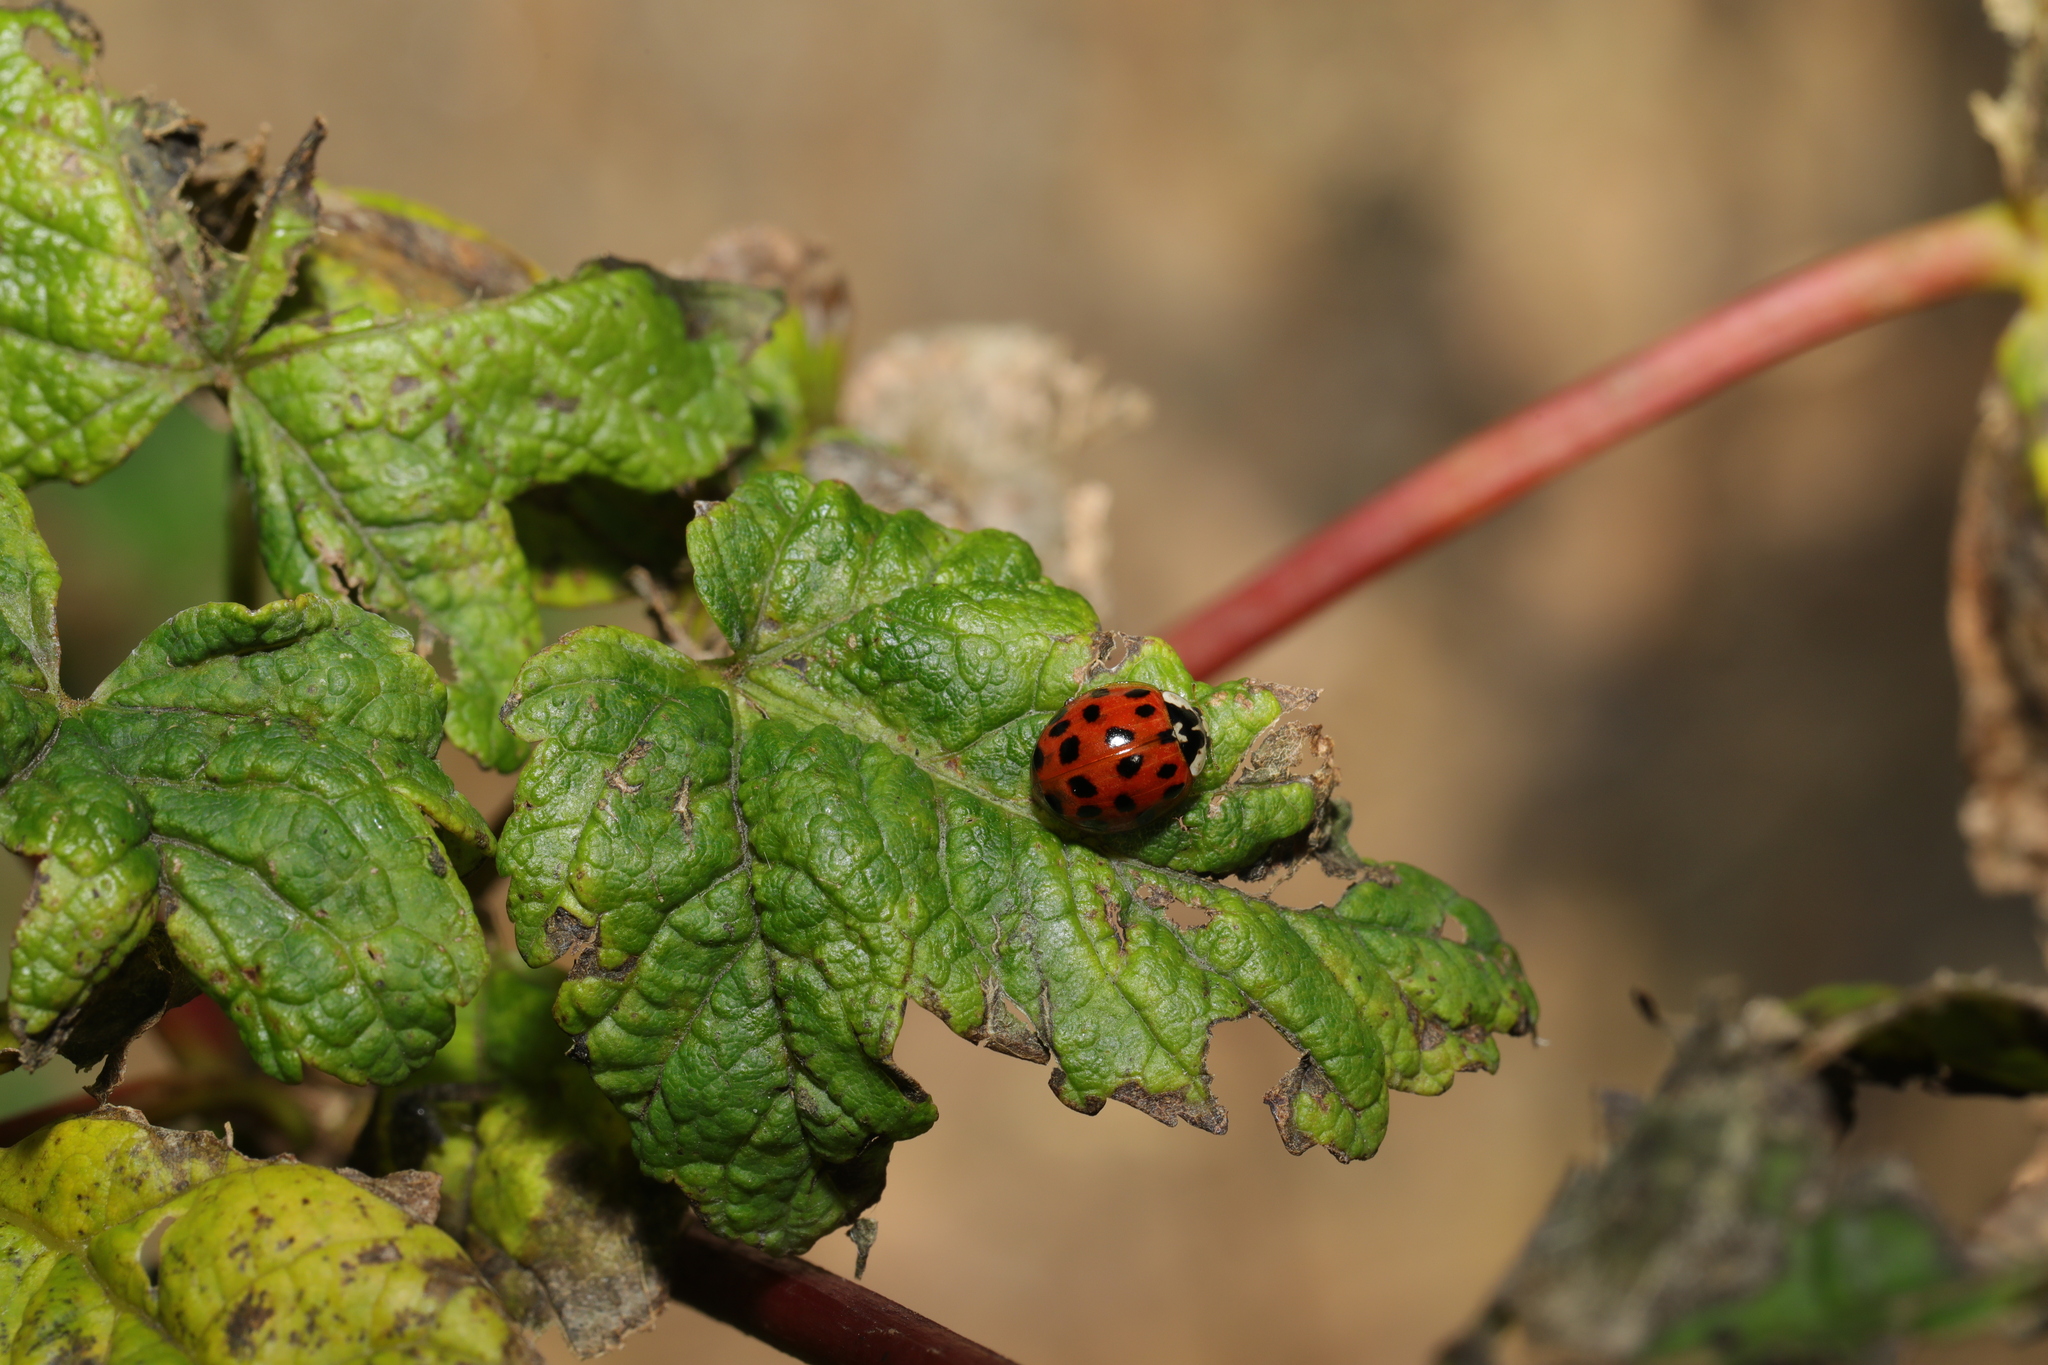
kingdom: Animalia
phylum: Arthropoda
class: Insecta
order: Coleoptera
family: Coccinellidae
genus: Harmonia
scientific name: Harmonia axyridis
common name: Harlequin ladybird
